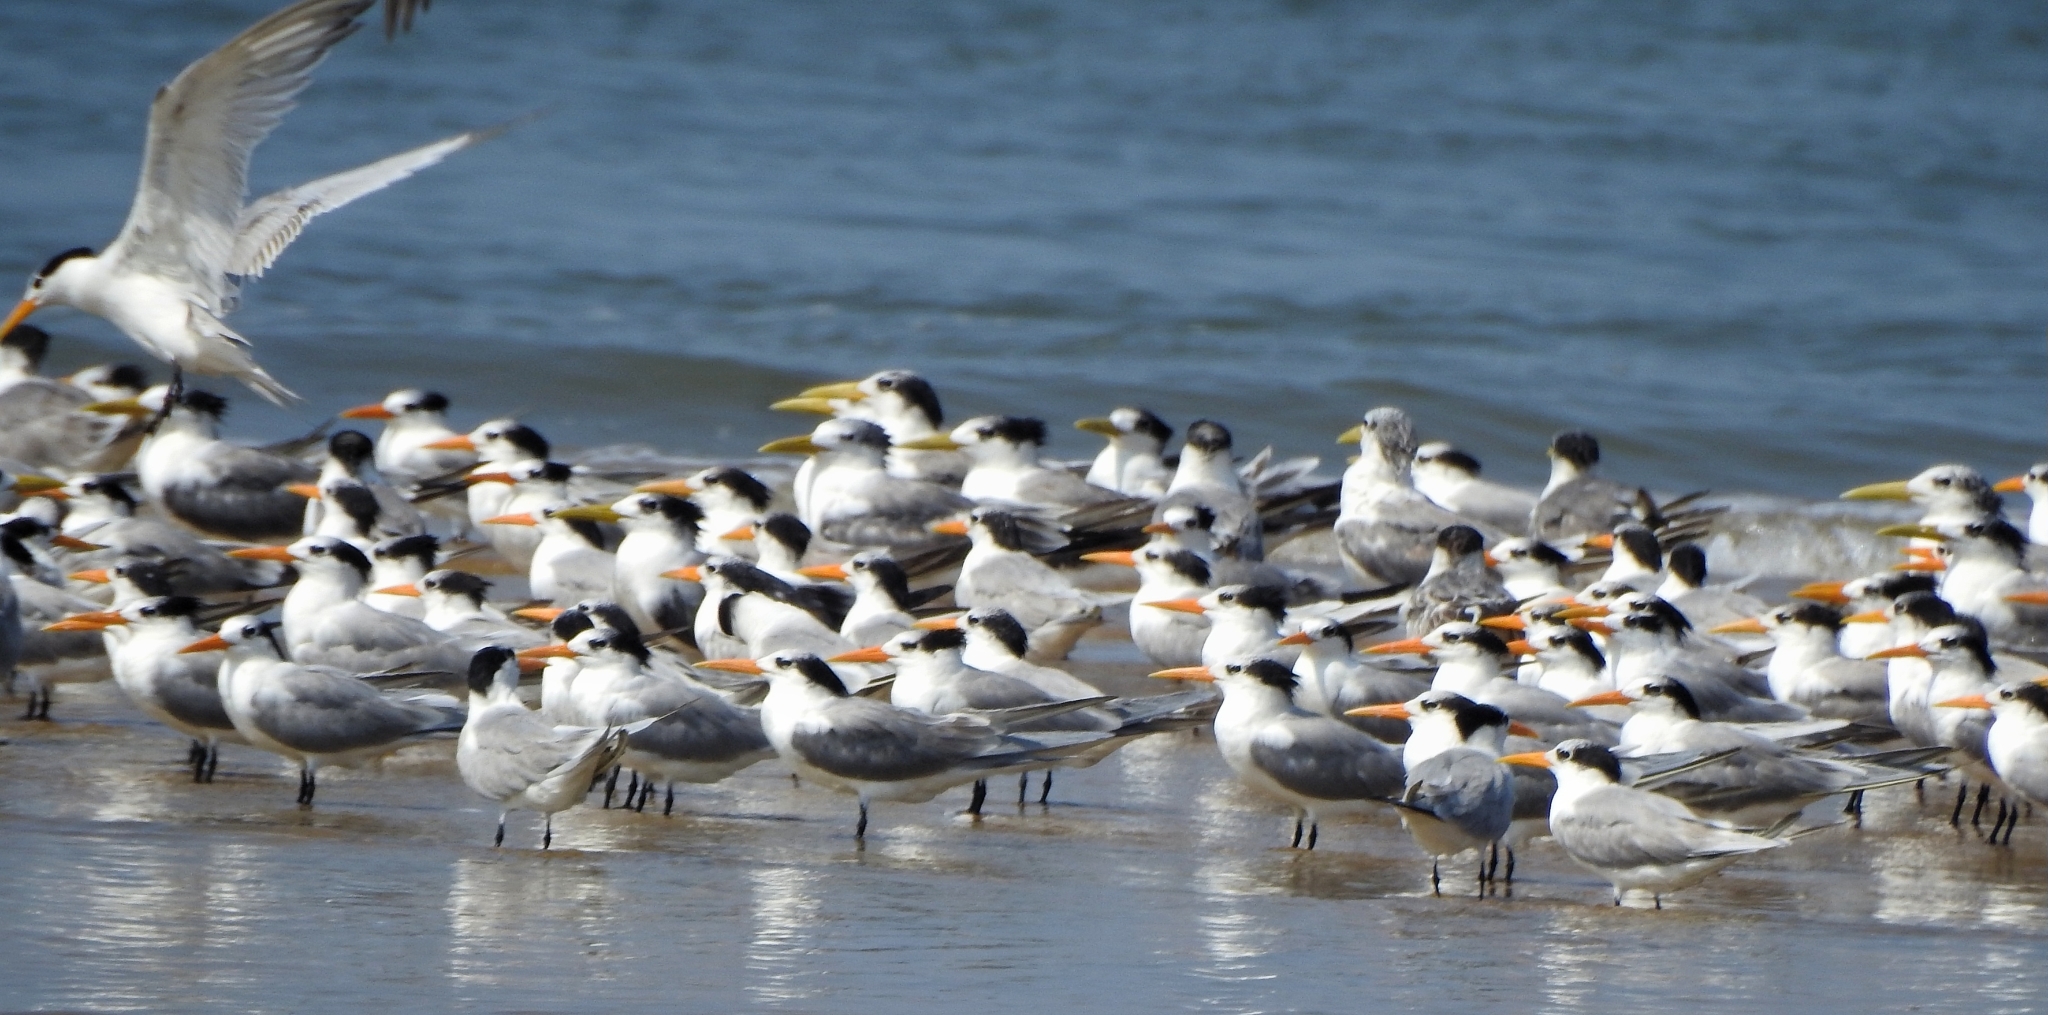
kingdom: Animalia
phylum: Chordata
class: Aves
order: Charadriiformes
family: Laridae
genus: Thalasseus
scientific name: Thalasseus bengalensis
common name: Lesser crested tern
